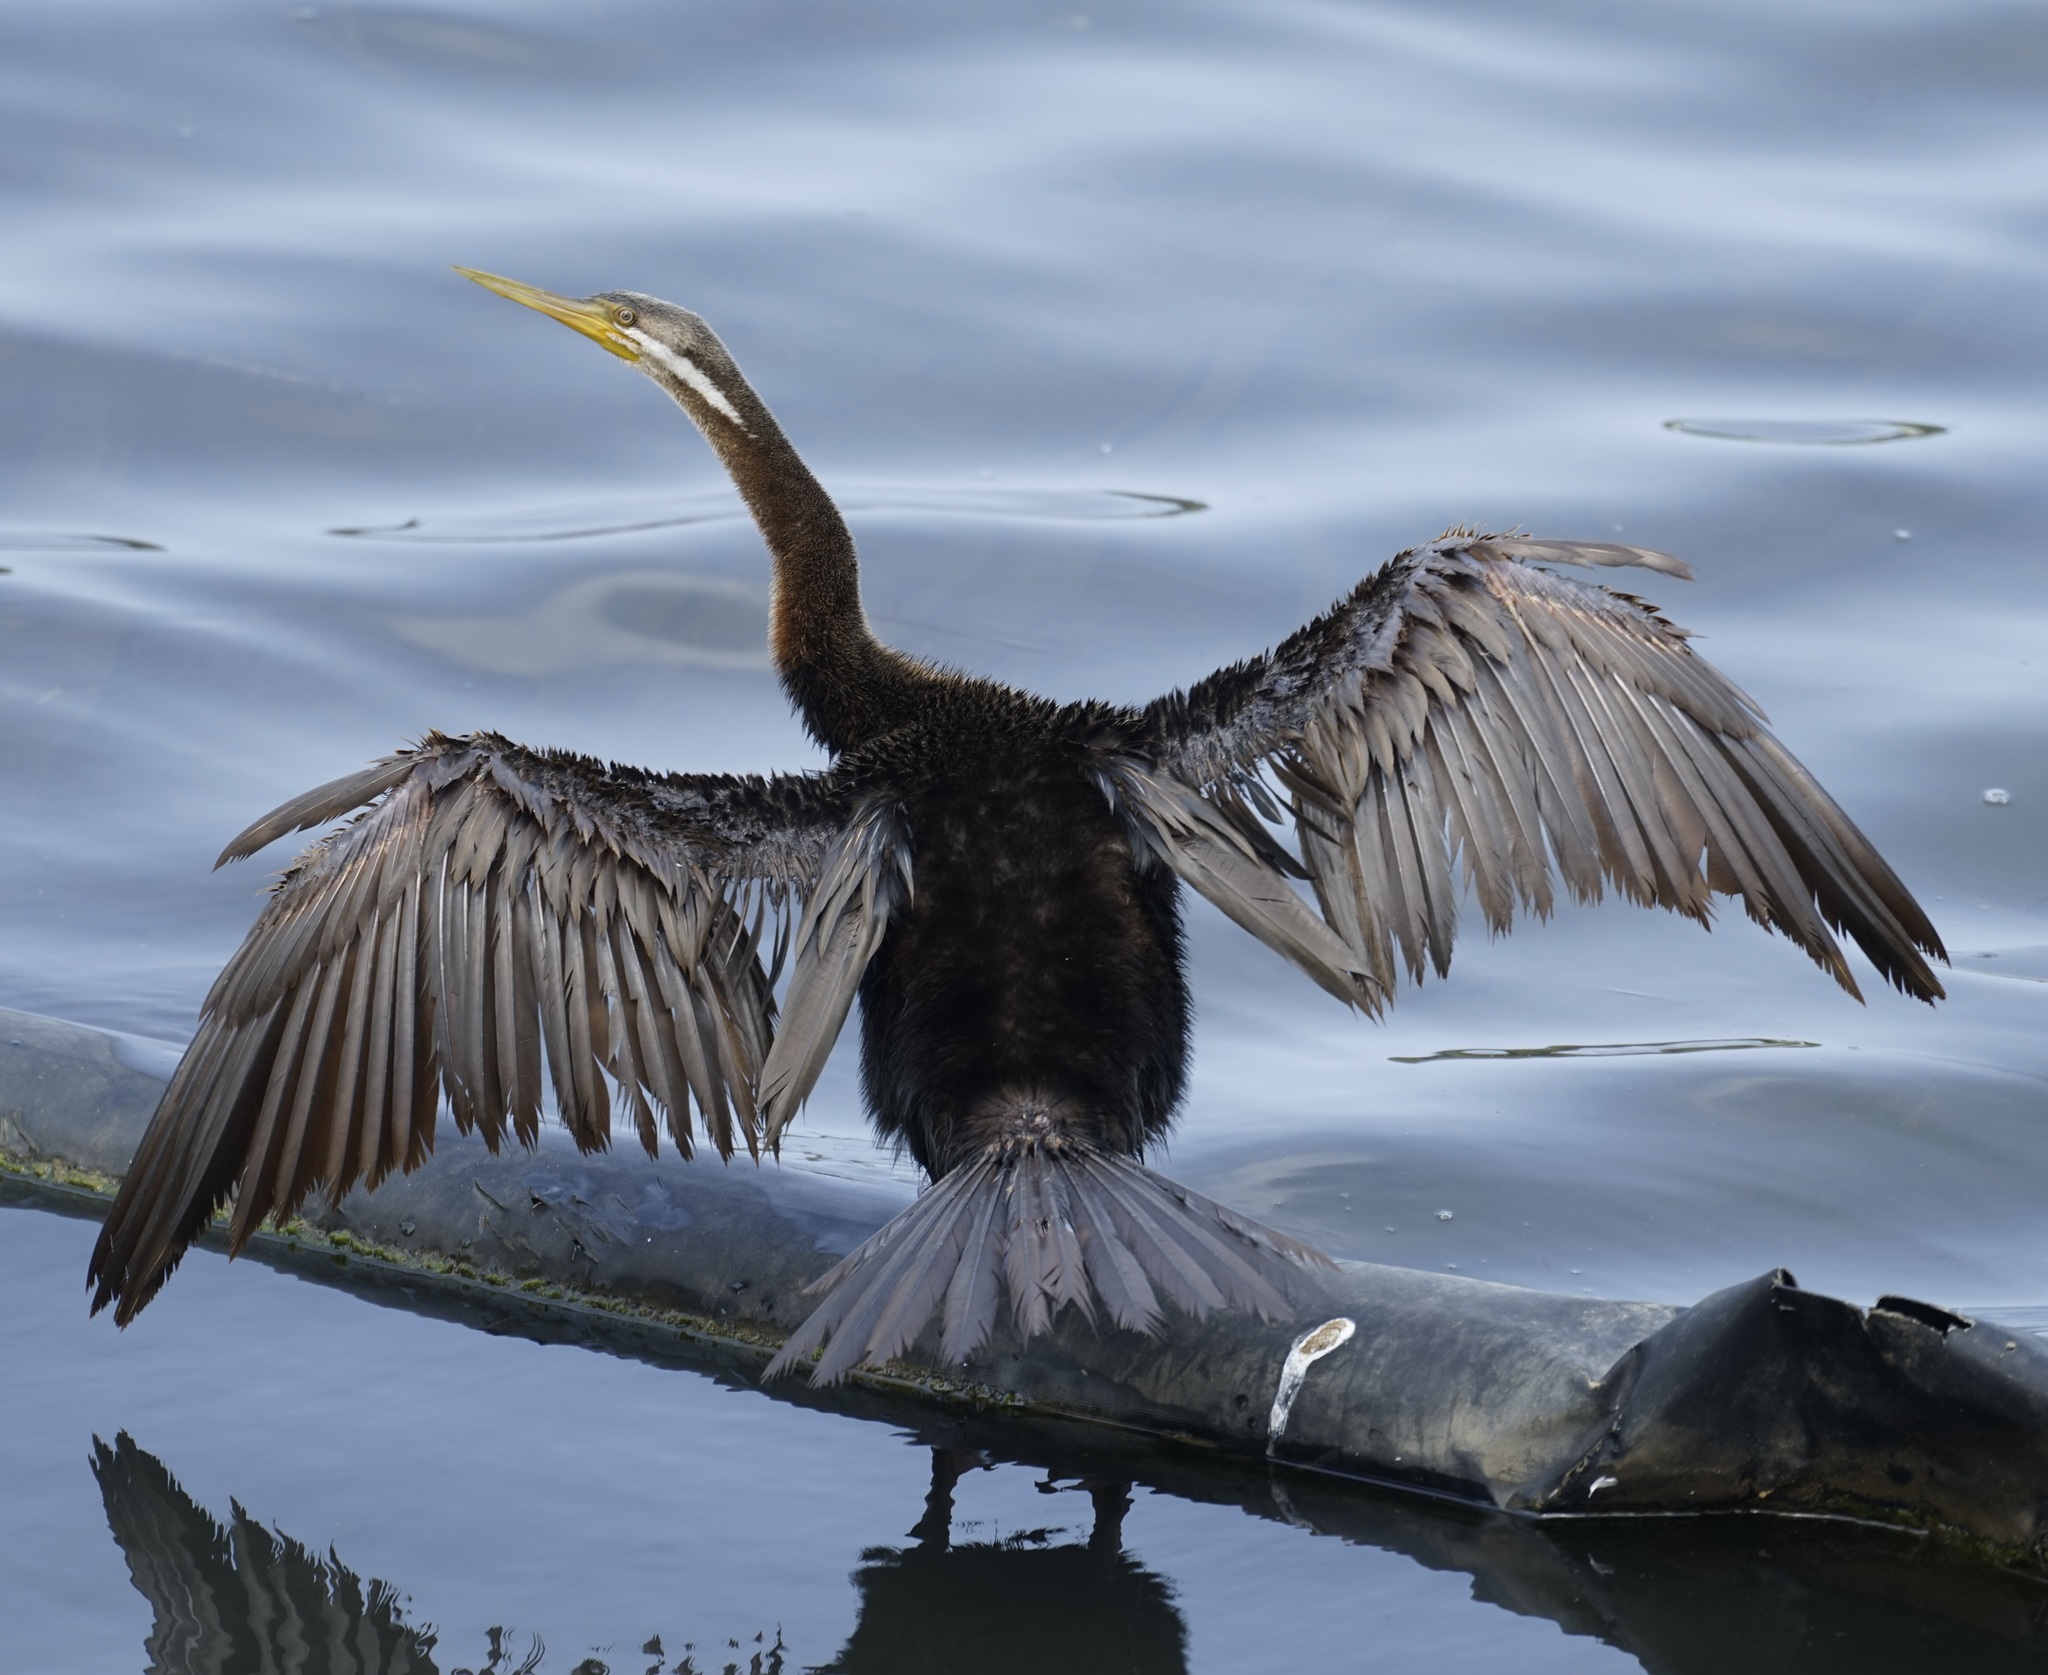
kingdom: Animalia
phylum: Chordata
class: Aves
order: Suliformes
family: Anhingidae
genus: Anhinga
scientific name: Anhinga novaehollandiae
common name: Australasian darter
